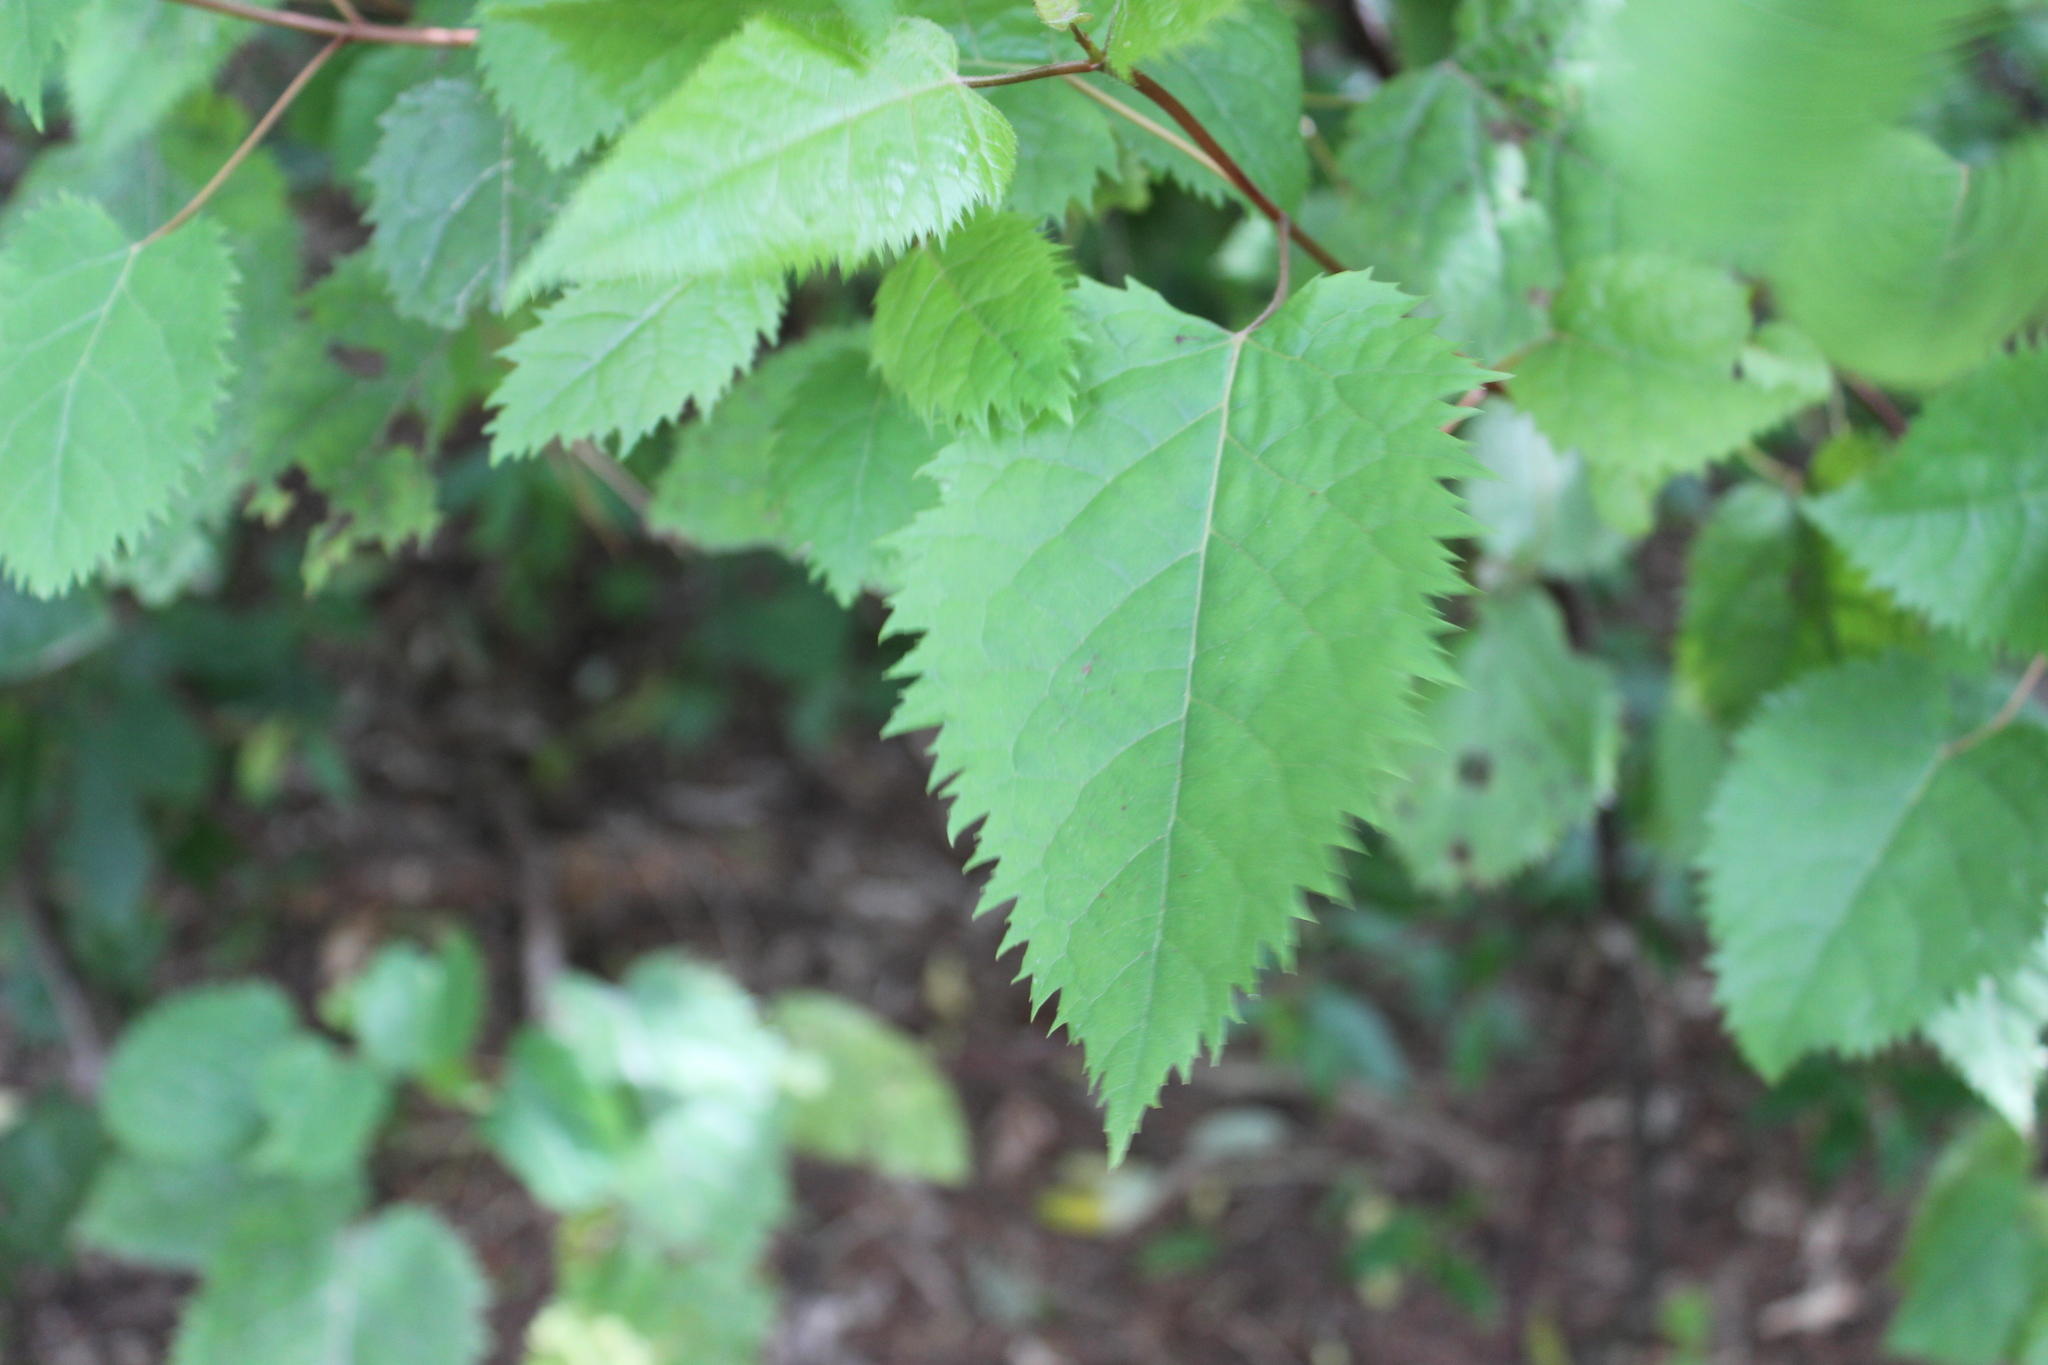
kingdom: Plantae
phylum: Tracheophyta
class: Magnoliopsida
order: Oxalidales
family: Elaeocarpaceae
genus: Aristotelia
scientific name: Aristotelia serrata
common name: New zealand wineberry
